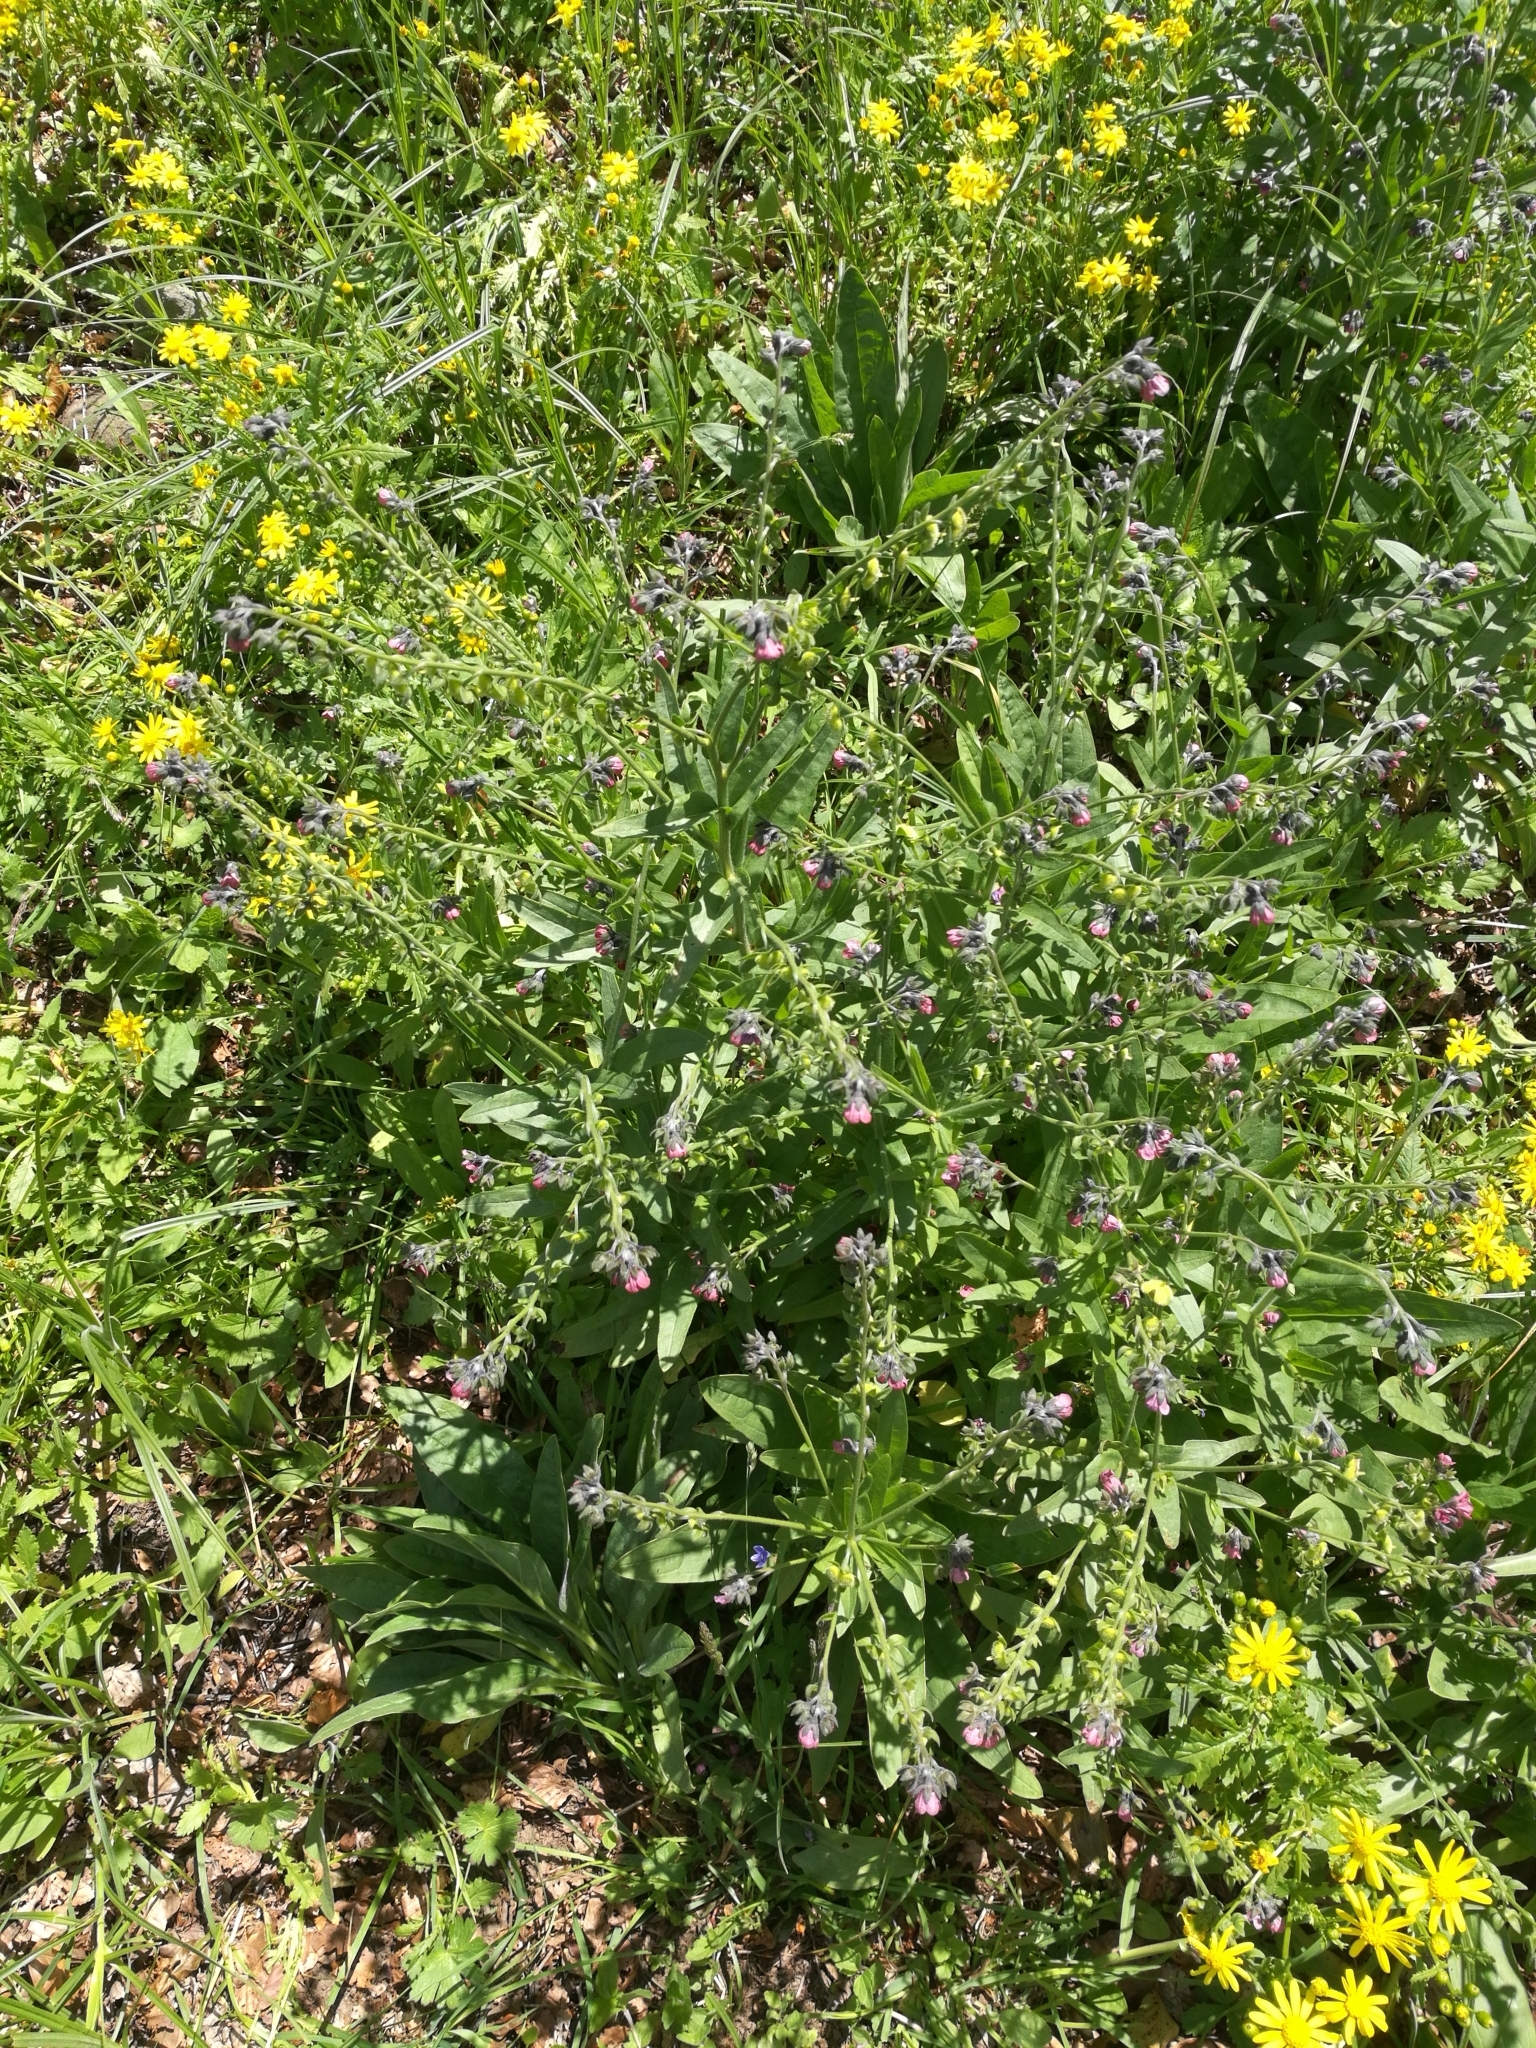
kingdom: Plantae
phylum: Tracheophyta
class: Magnoliopsida
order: Boraginales
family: Boraginaceae
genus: Cynoglossum
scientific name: Cynoglossum officinale
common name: Hound's-tongue
